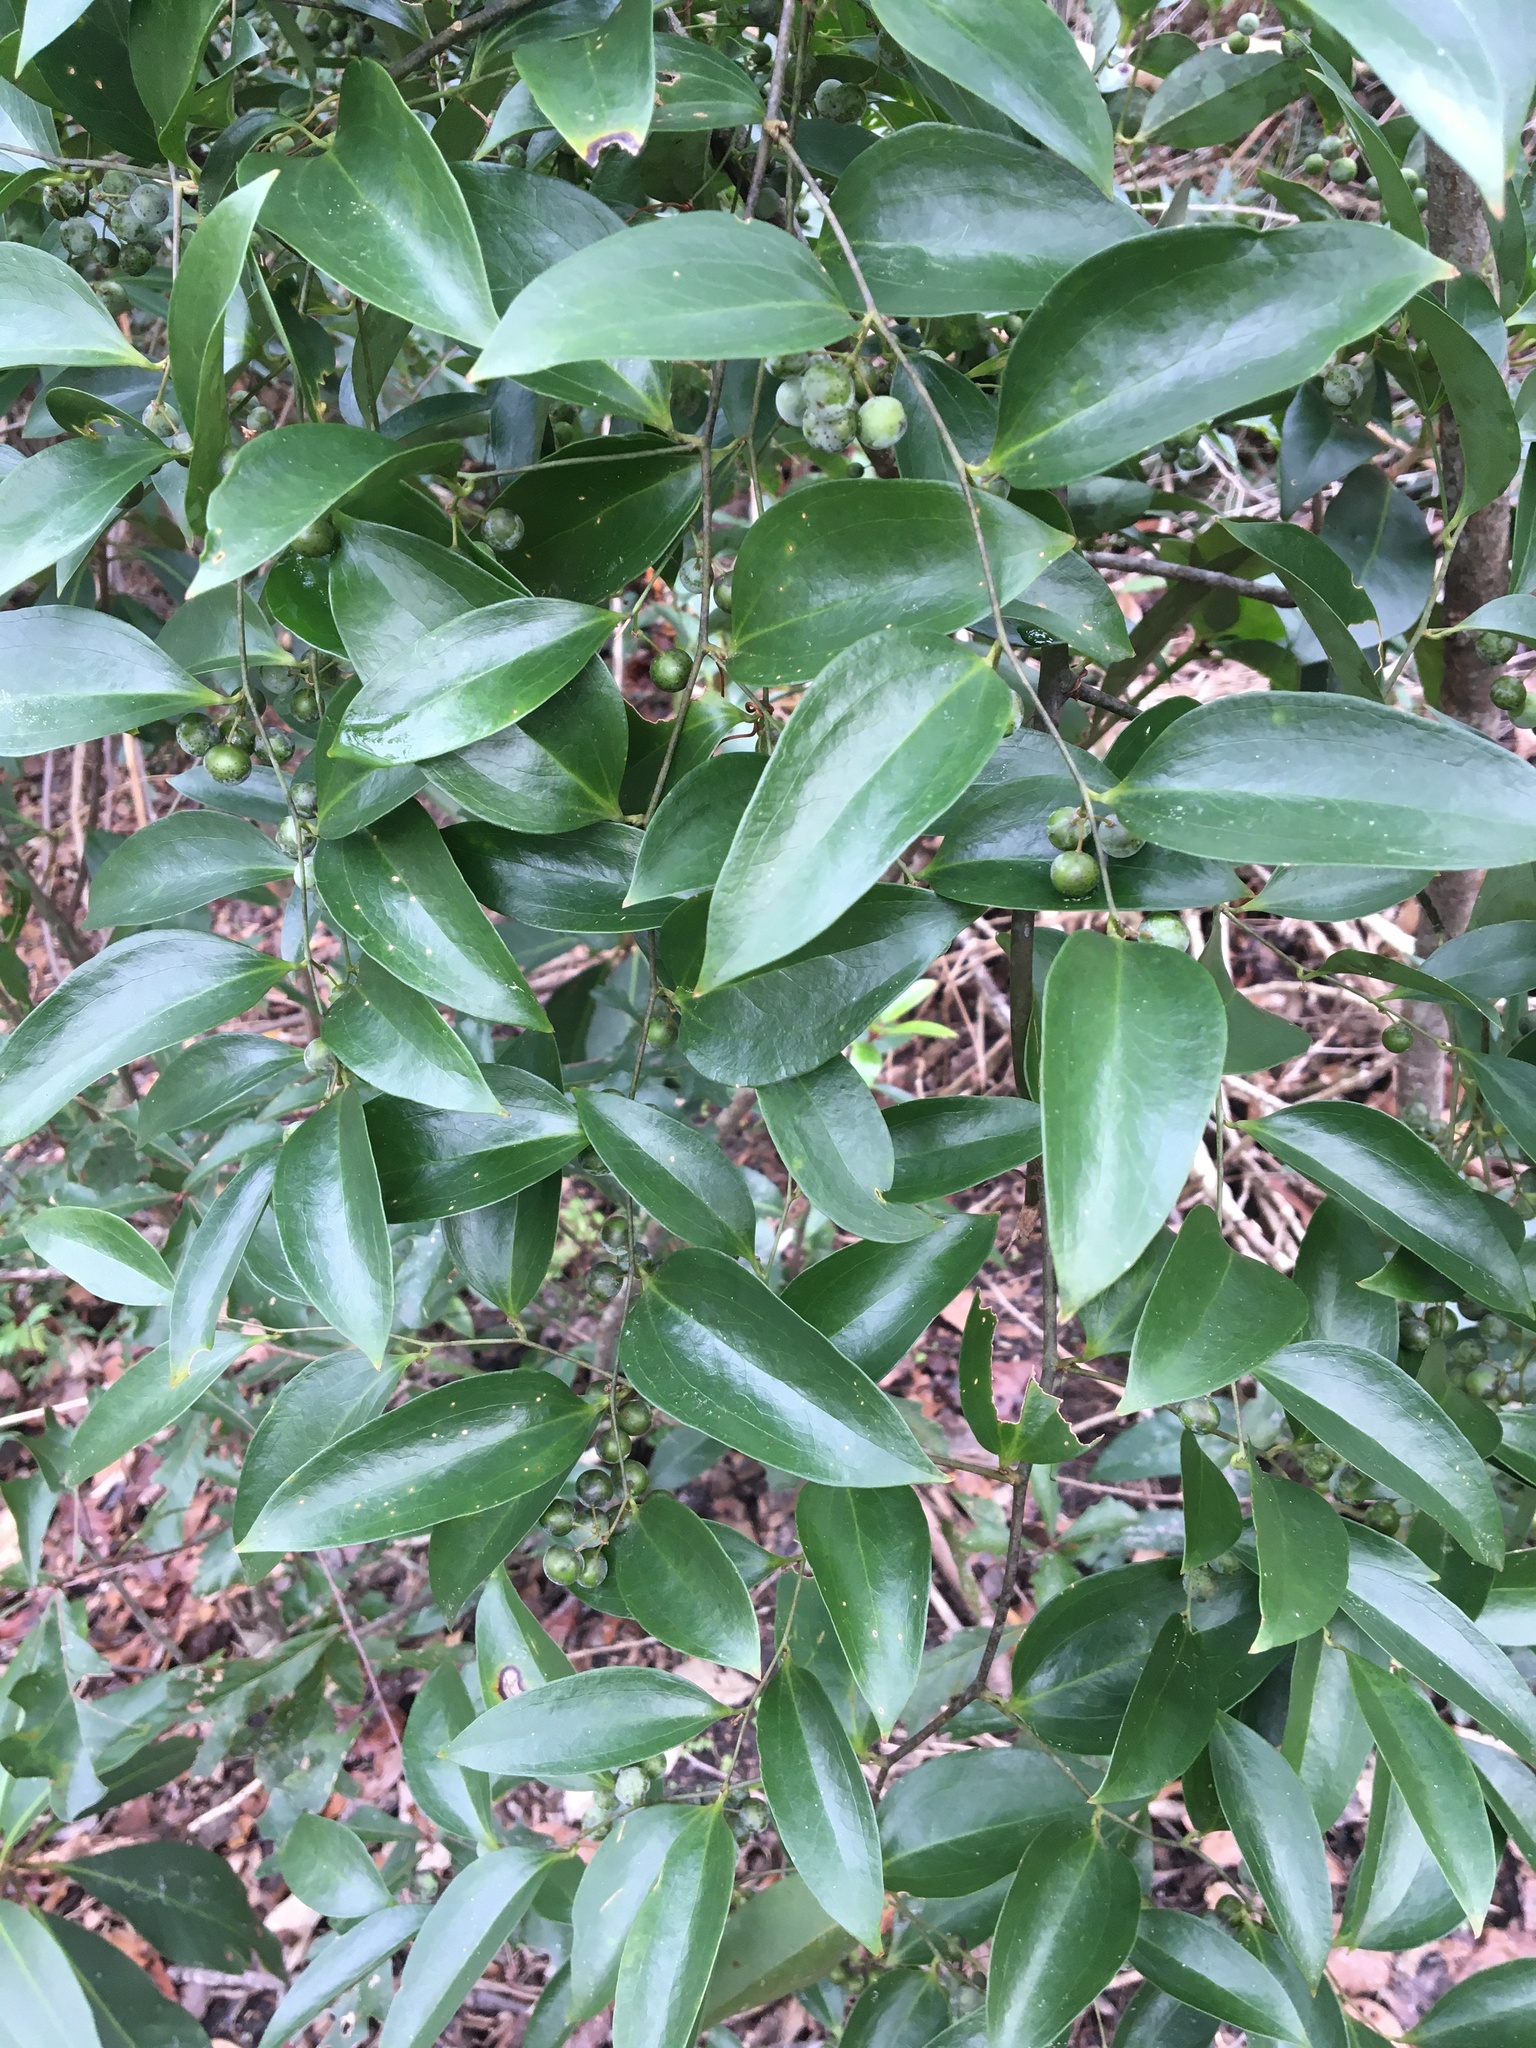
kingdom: Plantae
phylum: Tracheophyta
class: Liliopsida
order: Liliales
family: Smilacaceae
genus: Smilax
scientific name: Smilax maritima
